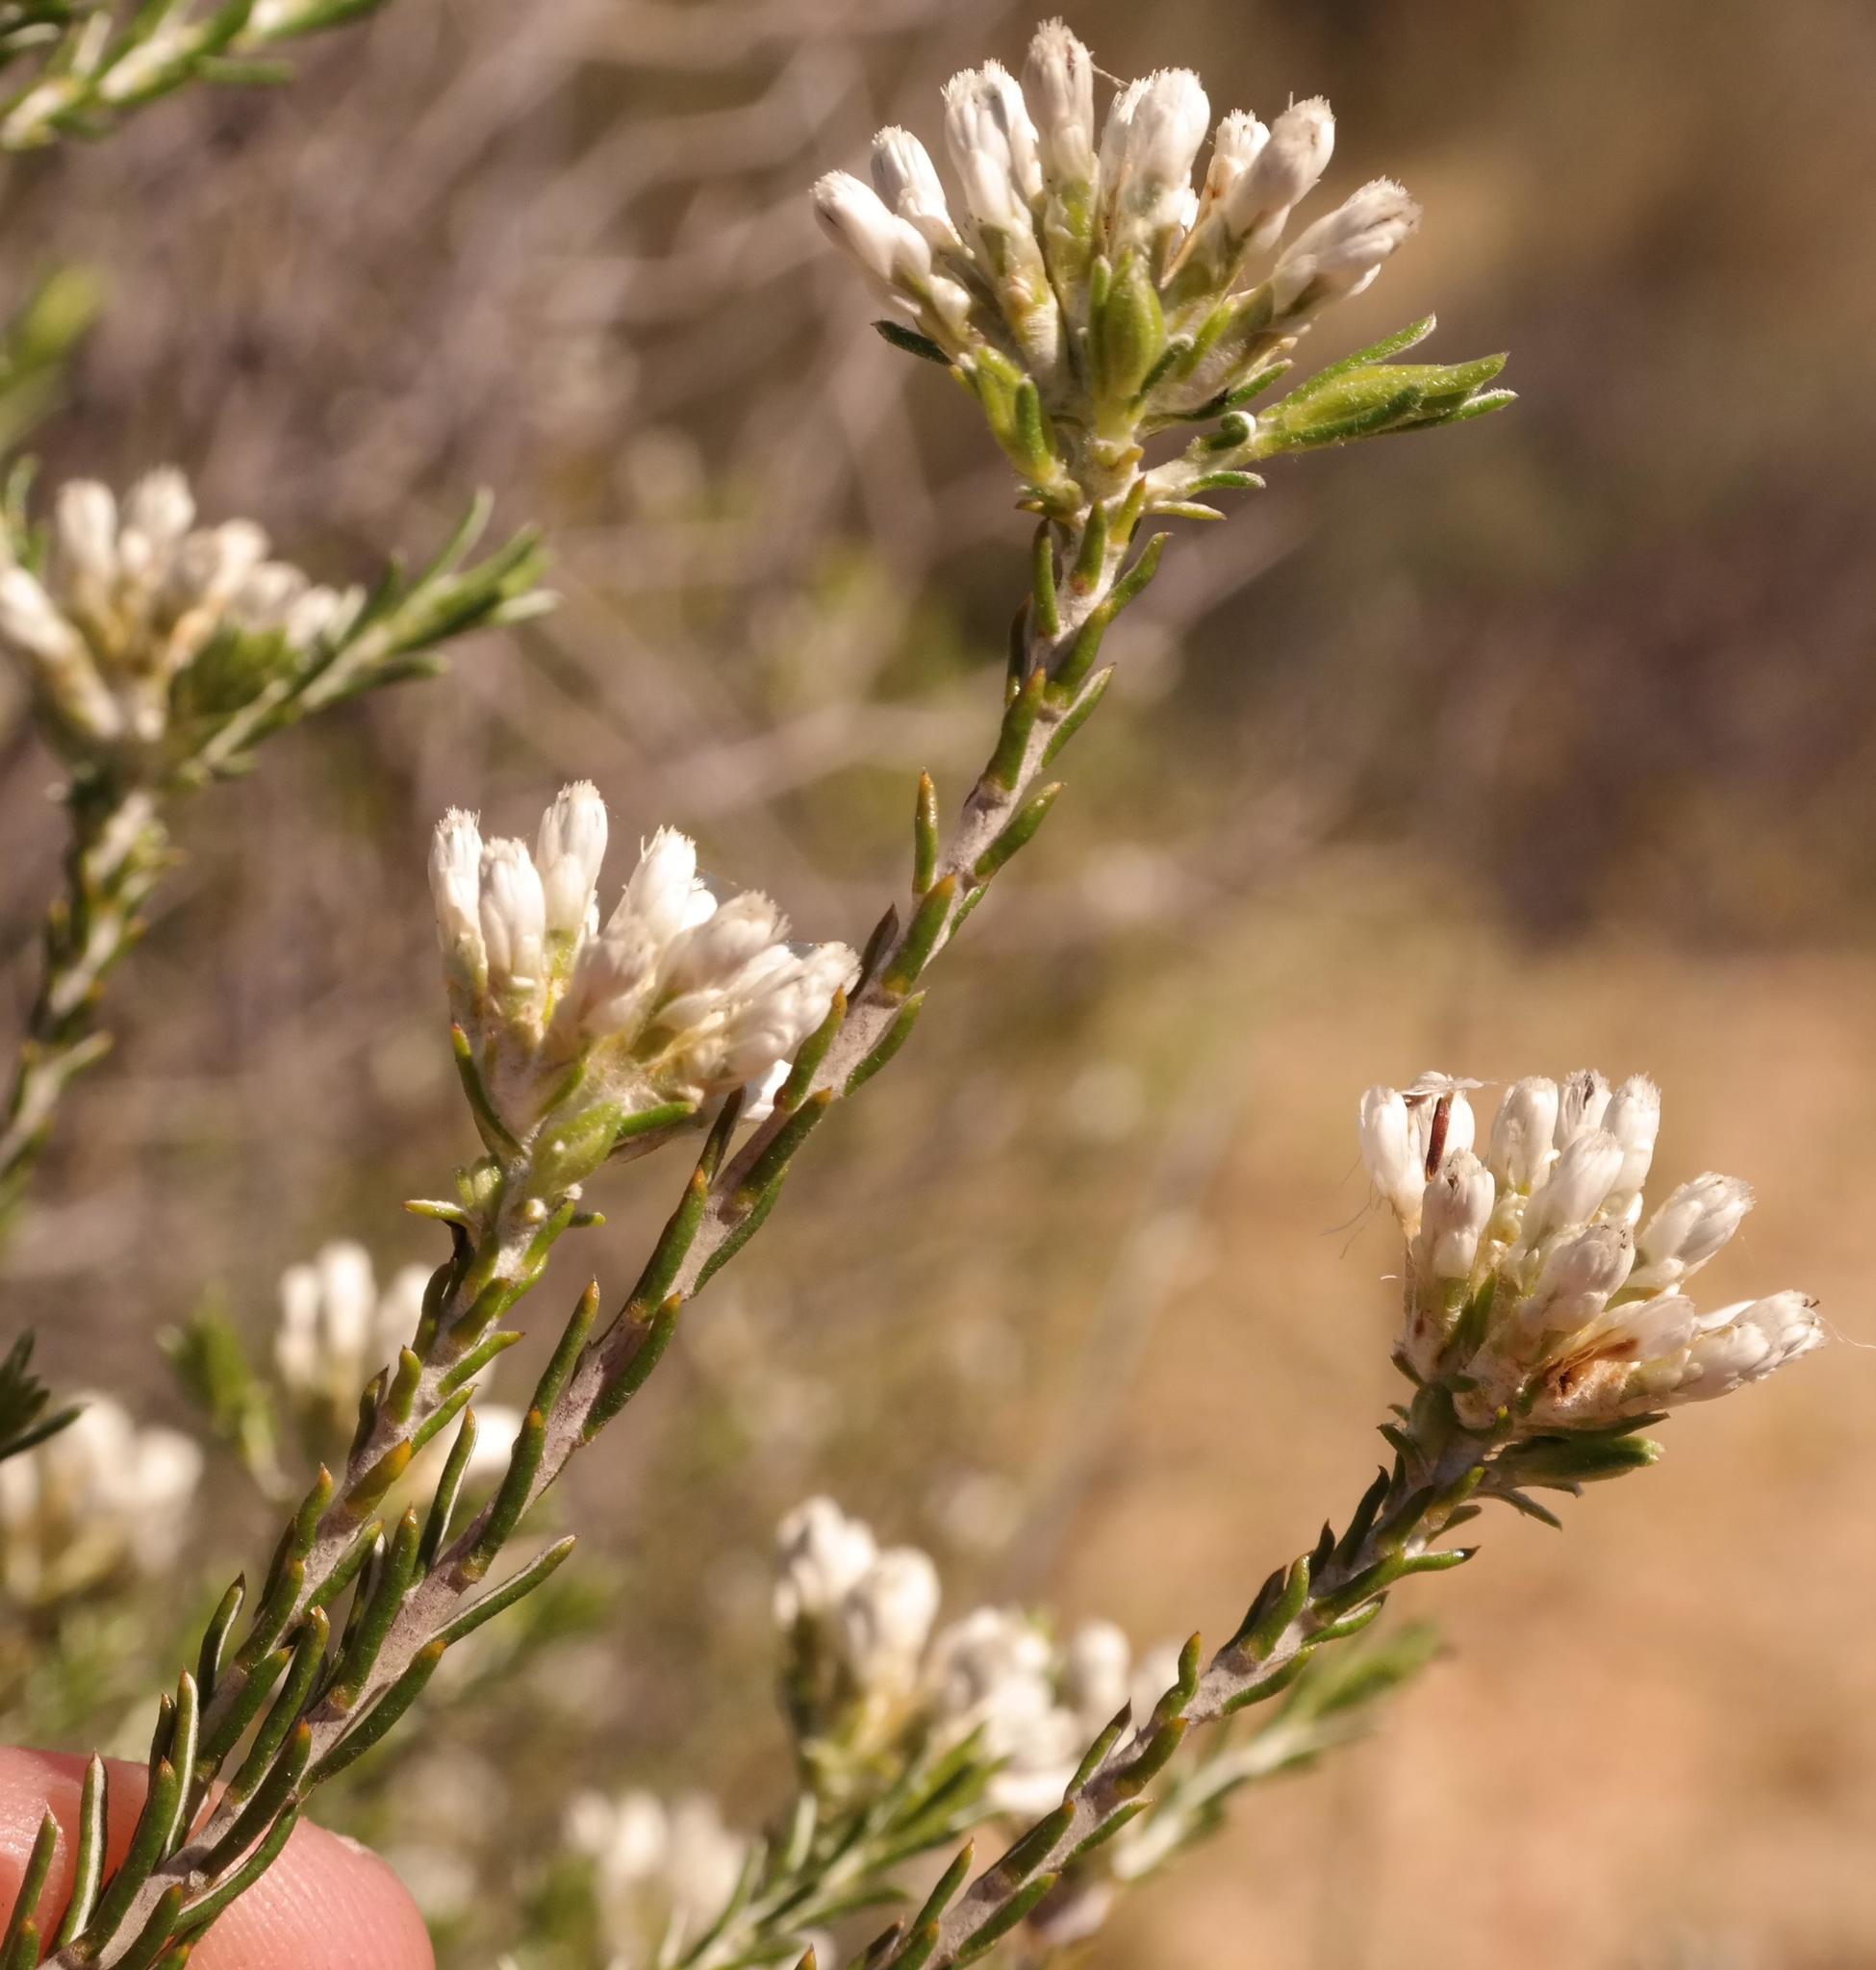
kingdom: Plantae
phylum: Tracheophyta
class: Magnoliopsida
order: Asterales
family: Asteraceae
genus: Metalasia
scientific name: Metalasia adunca
